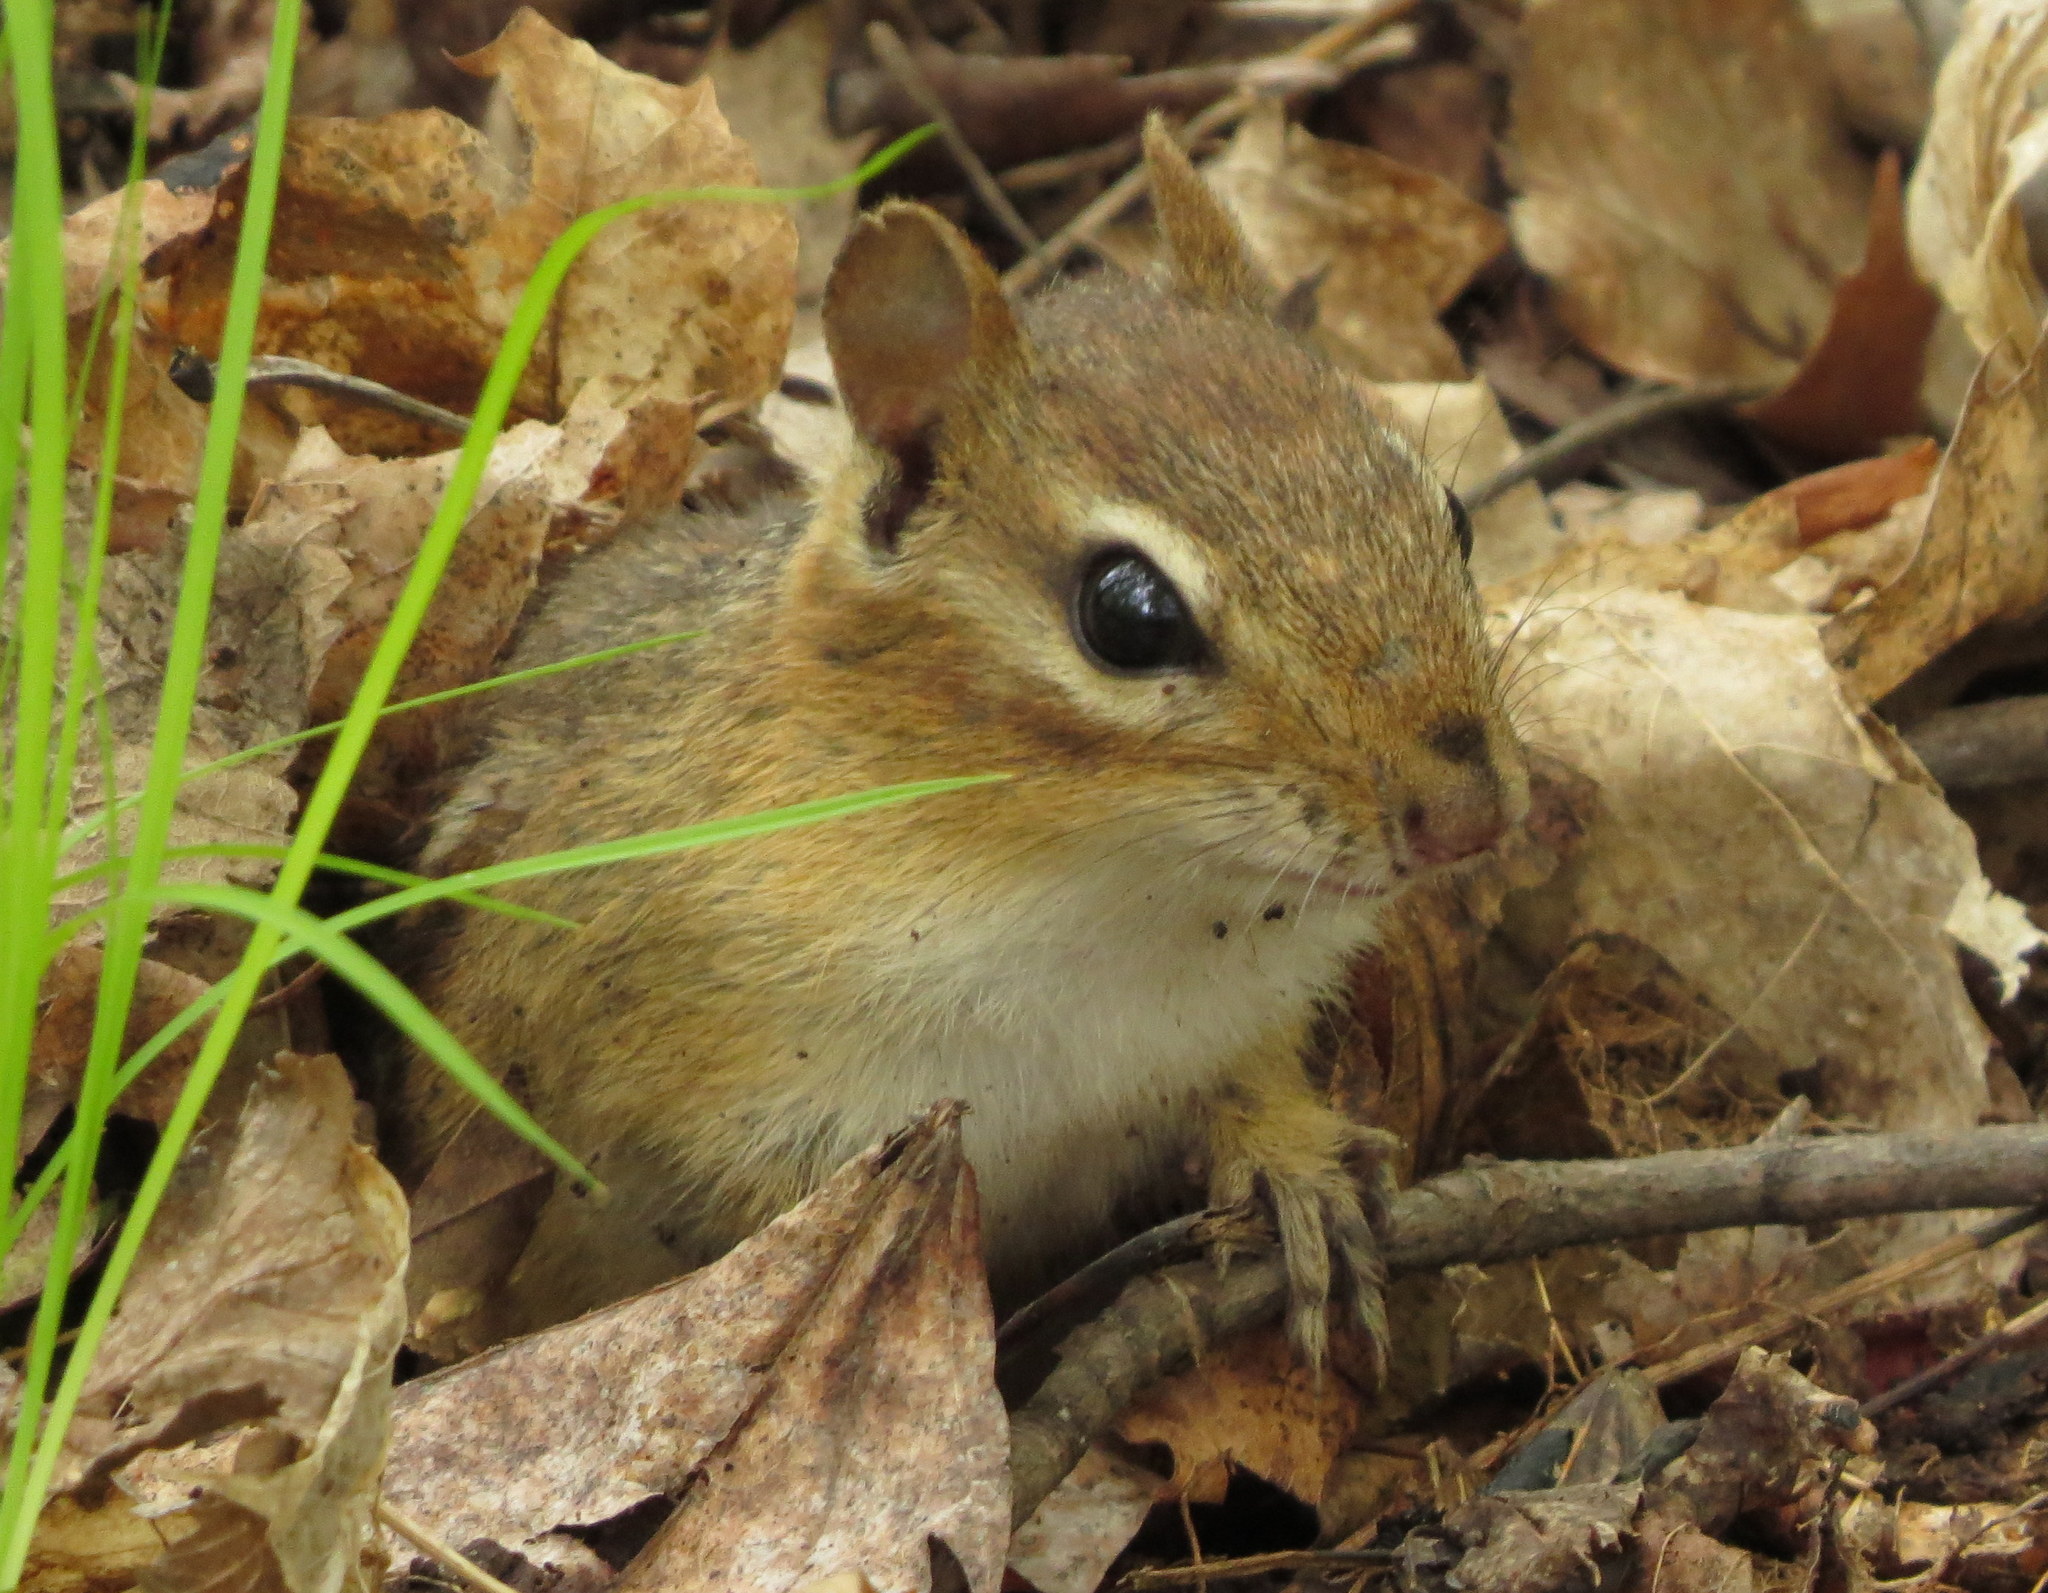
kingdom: Animalia
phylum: Chordata
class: Mammalia
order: Rodentia
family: Sciuridae
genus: Tamias
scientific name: Tamias striatus
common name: Eastern chipmunk
